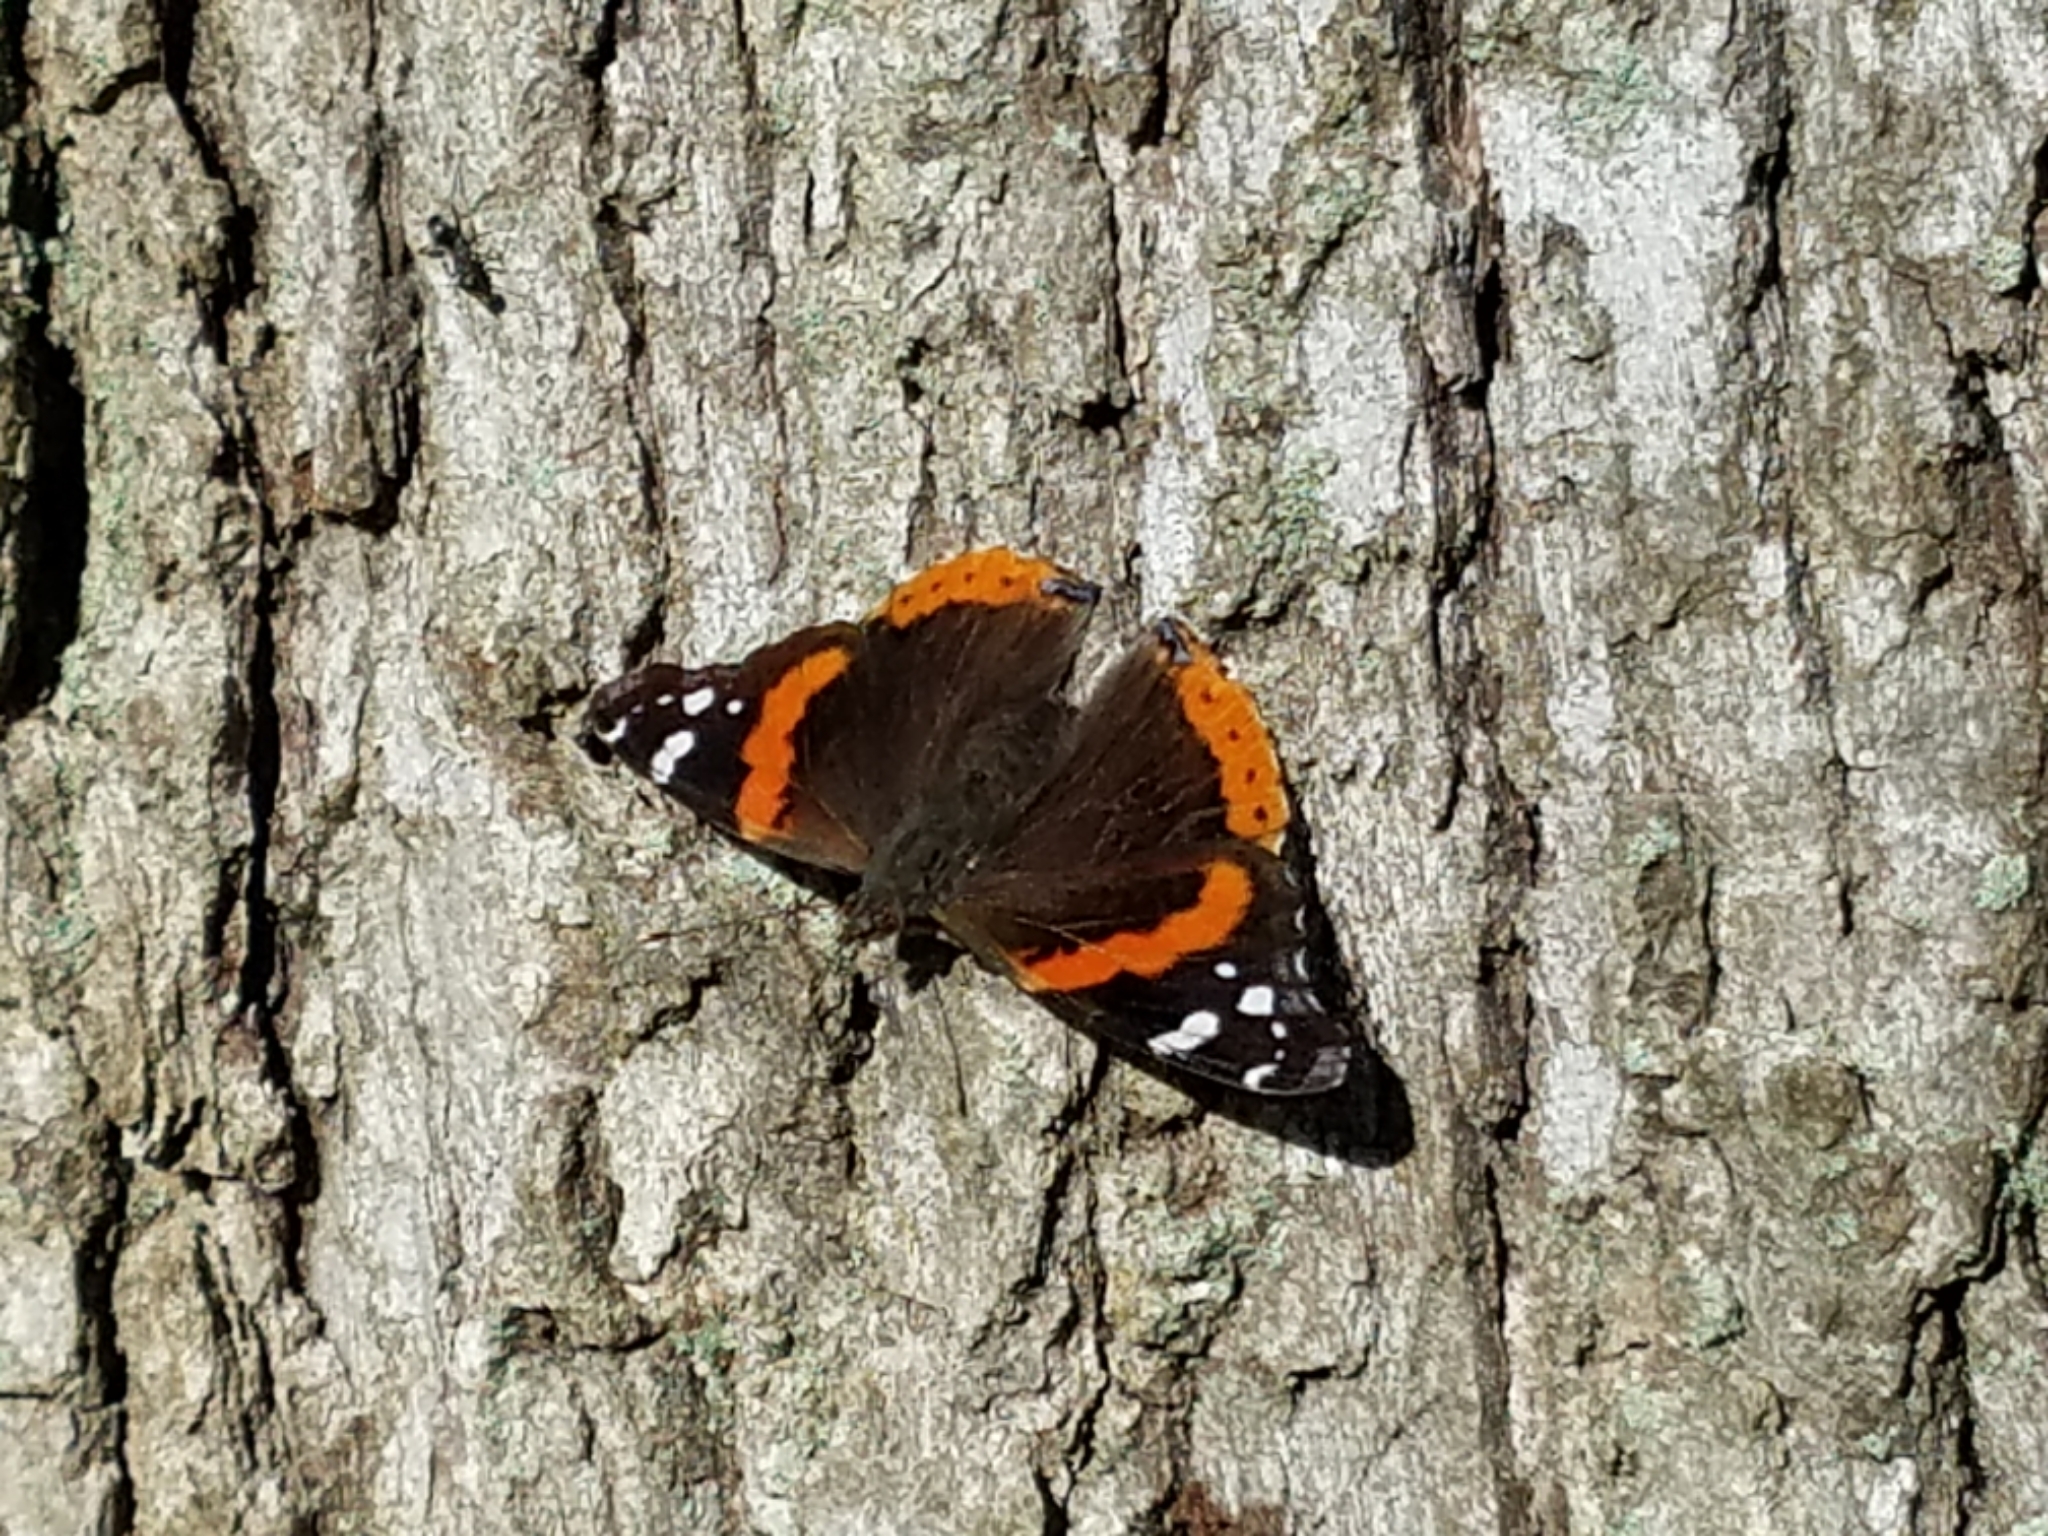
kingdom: Animalia
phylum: Arthropoda
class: Insecta
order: Lepidoptera
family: Nymphalidae
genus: Vanessa
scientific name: Vanessa atalanta
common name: Red admiral
